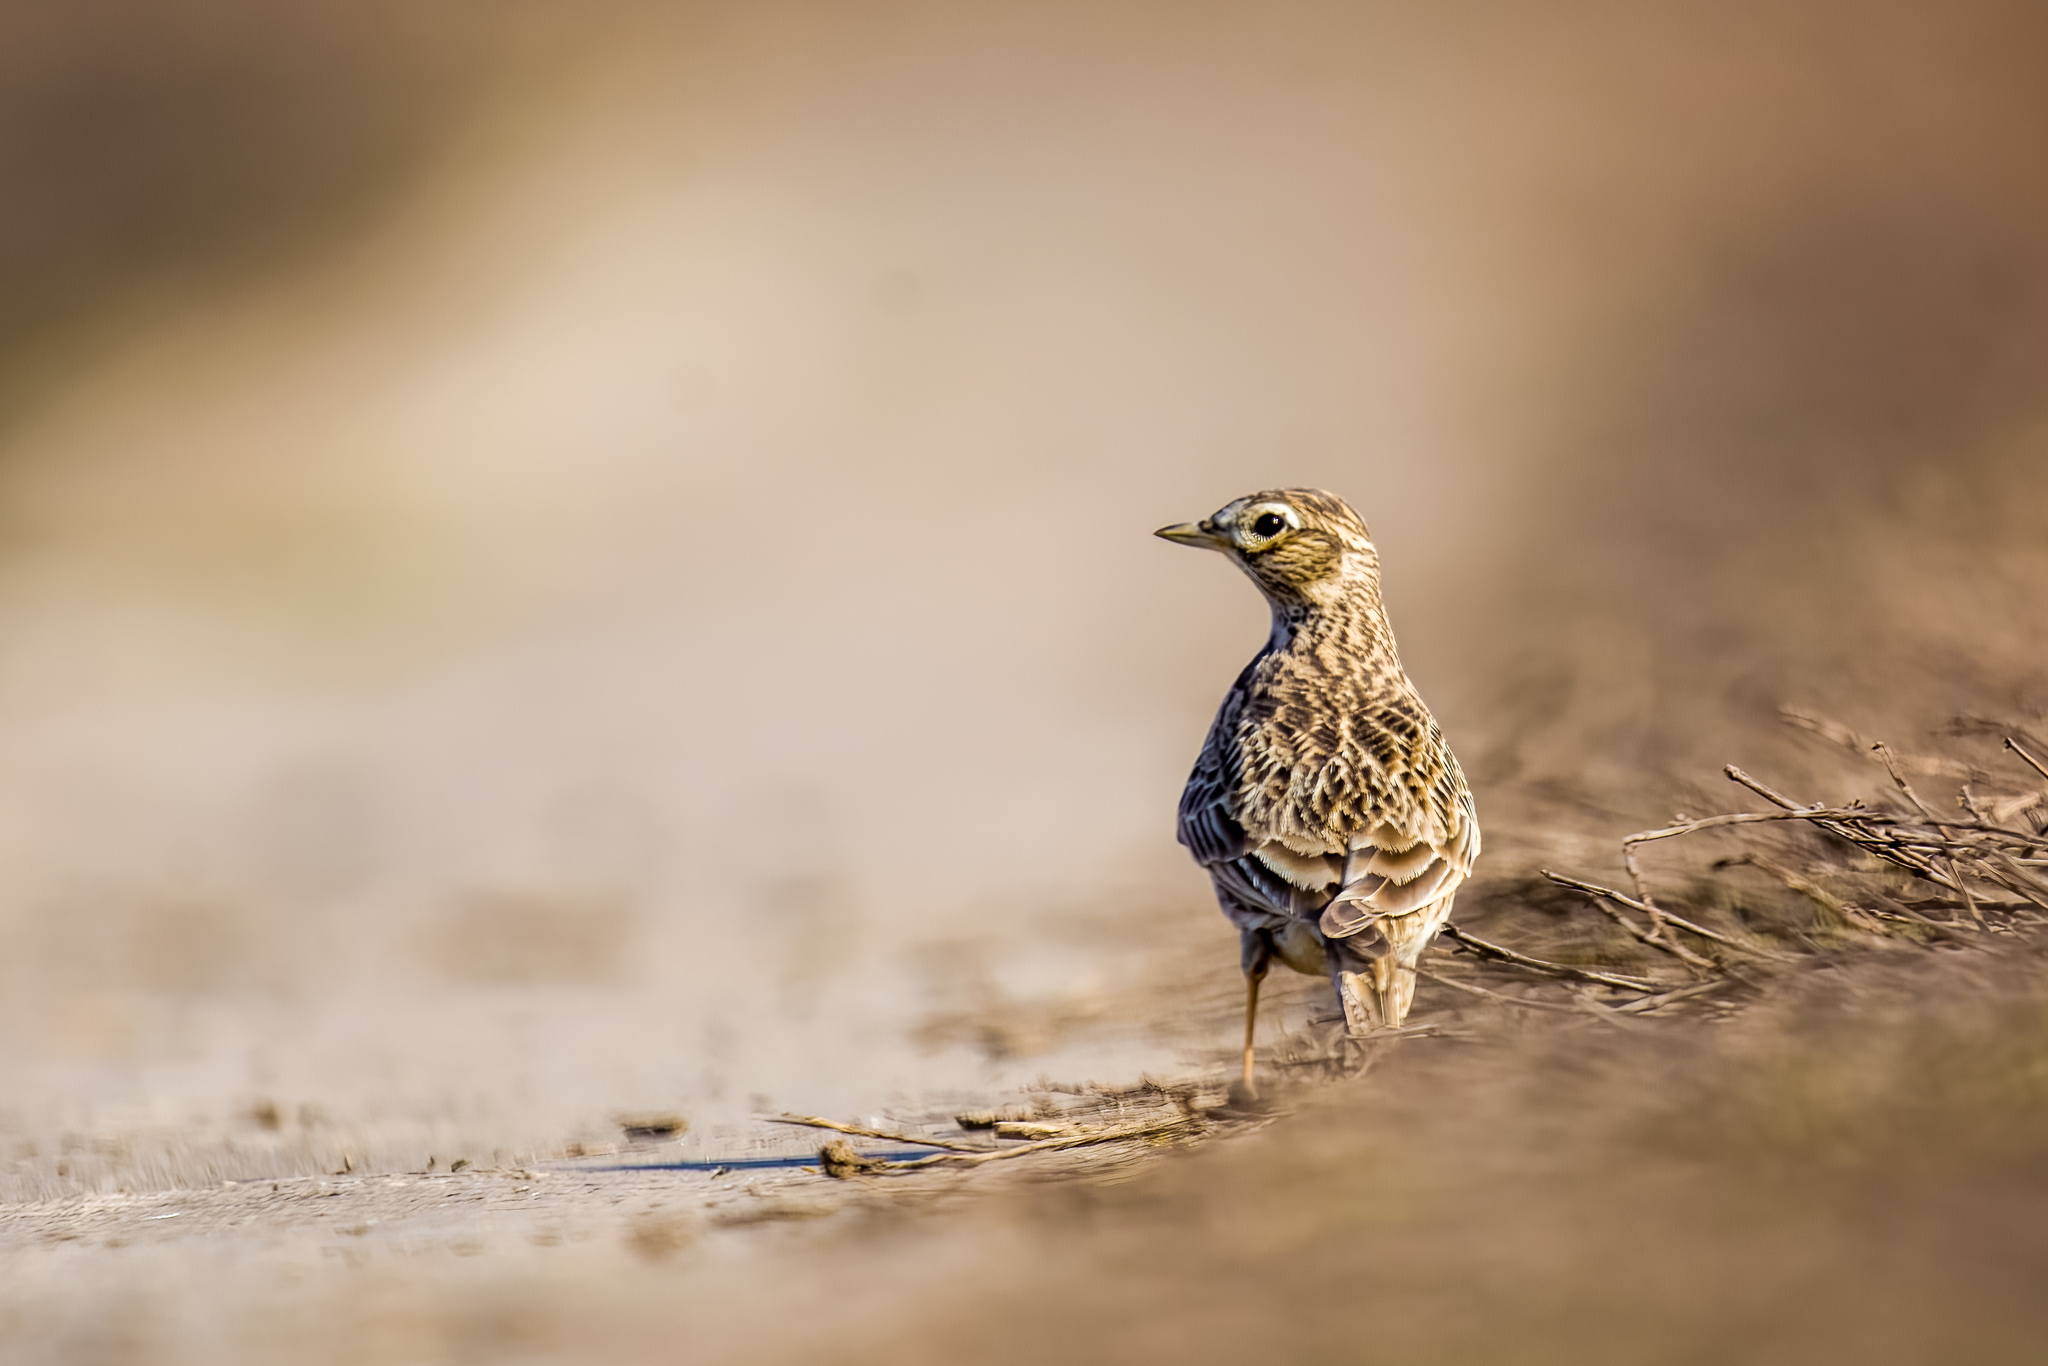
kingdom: Animalia
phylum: Chordata
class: Aves
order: Passeriformes
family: Alaudidae
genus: Alauda
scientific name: Alauda arvensis
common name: Eurasian skylark
